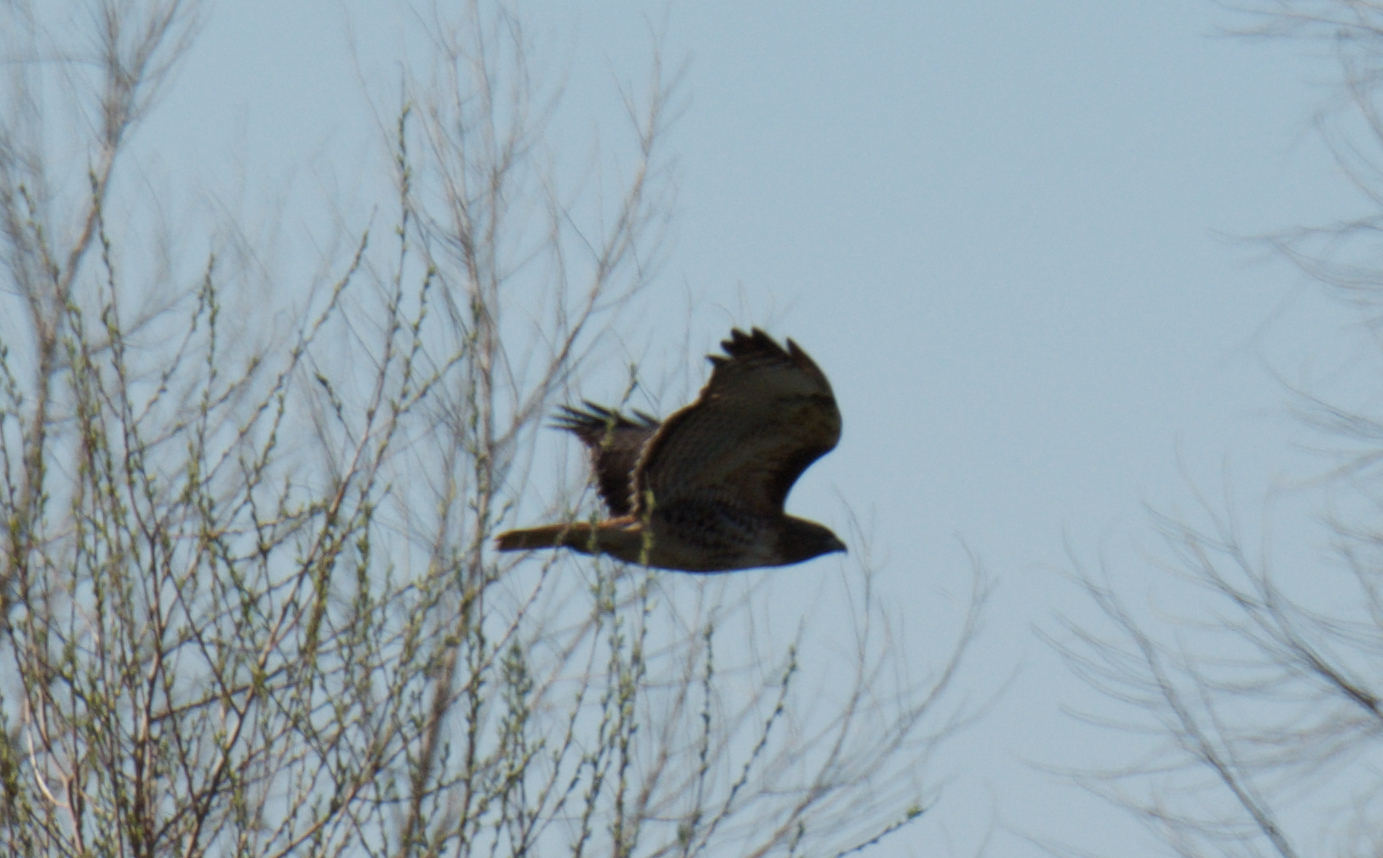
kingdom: Animalia
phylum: Chordata
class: Aves
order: Accipitriformes
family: Accipitridae
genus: Buteo
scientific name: Buteo jamaicensis
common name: Red-tailed hawk
